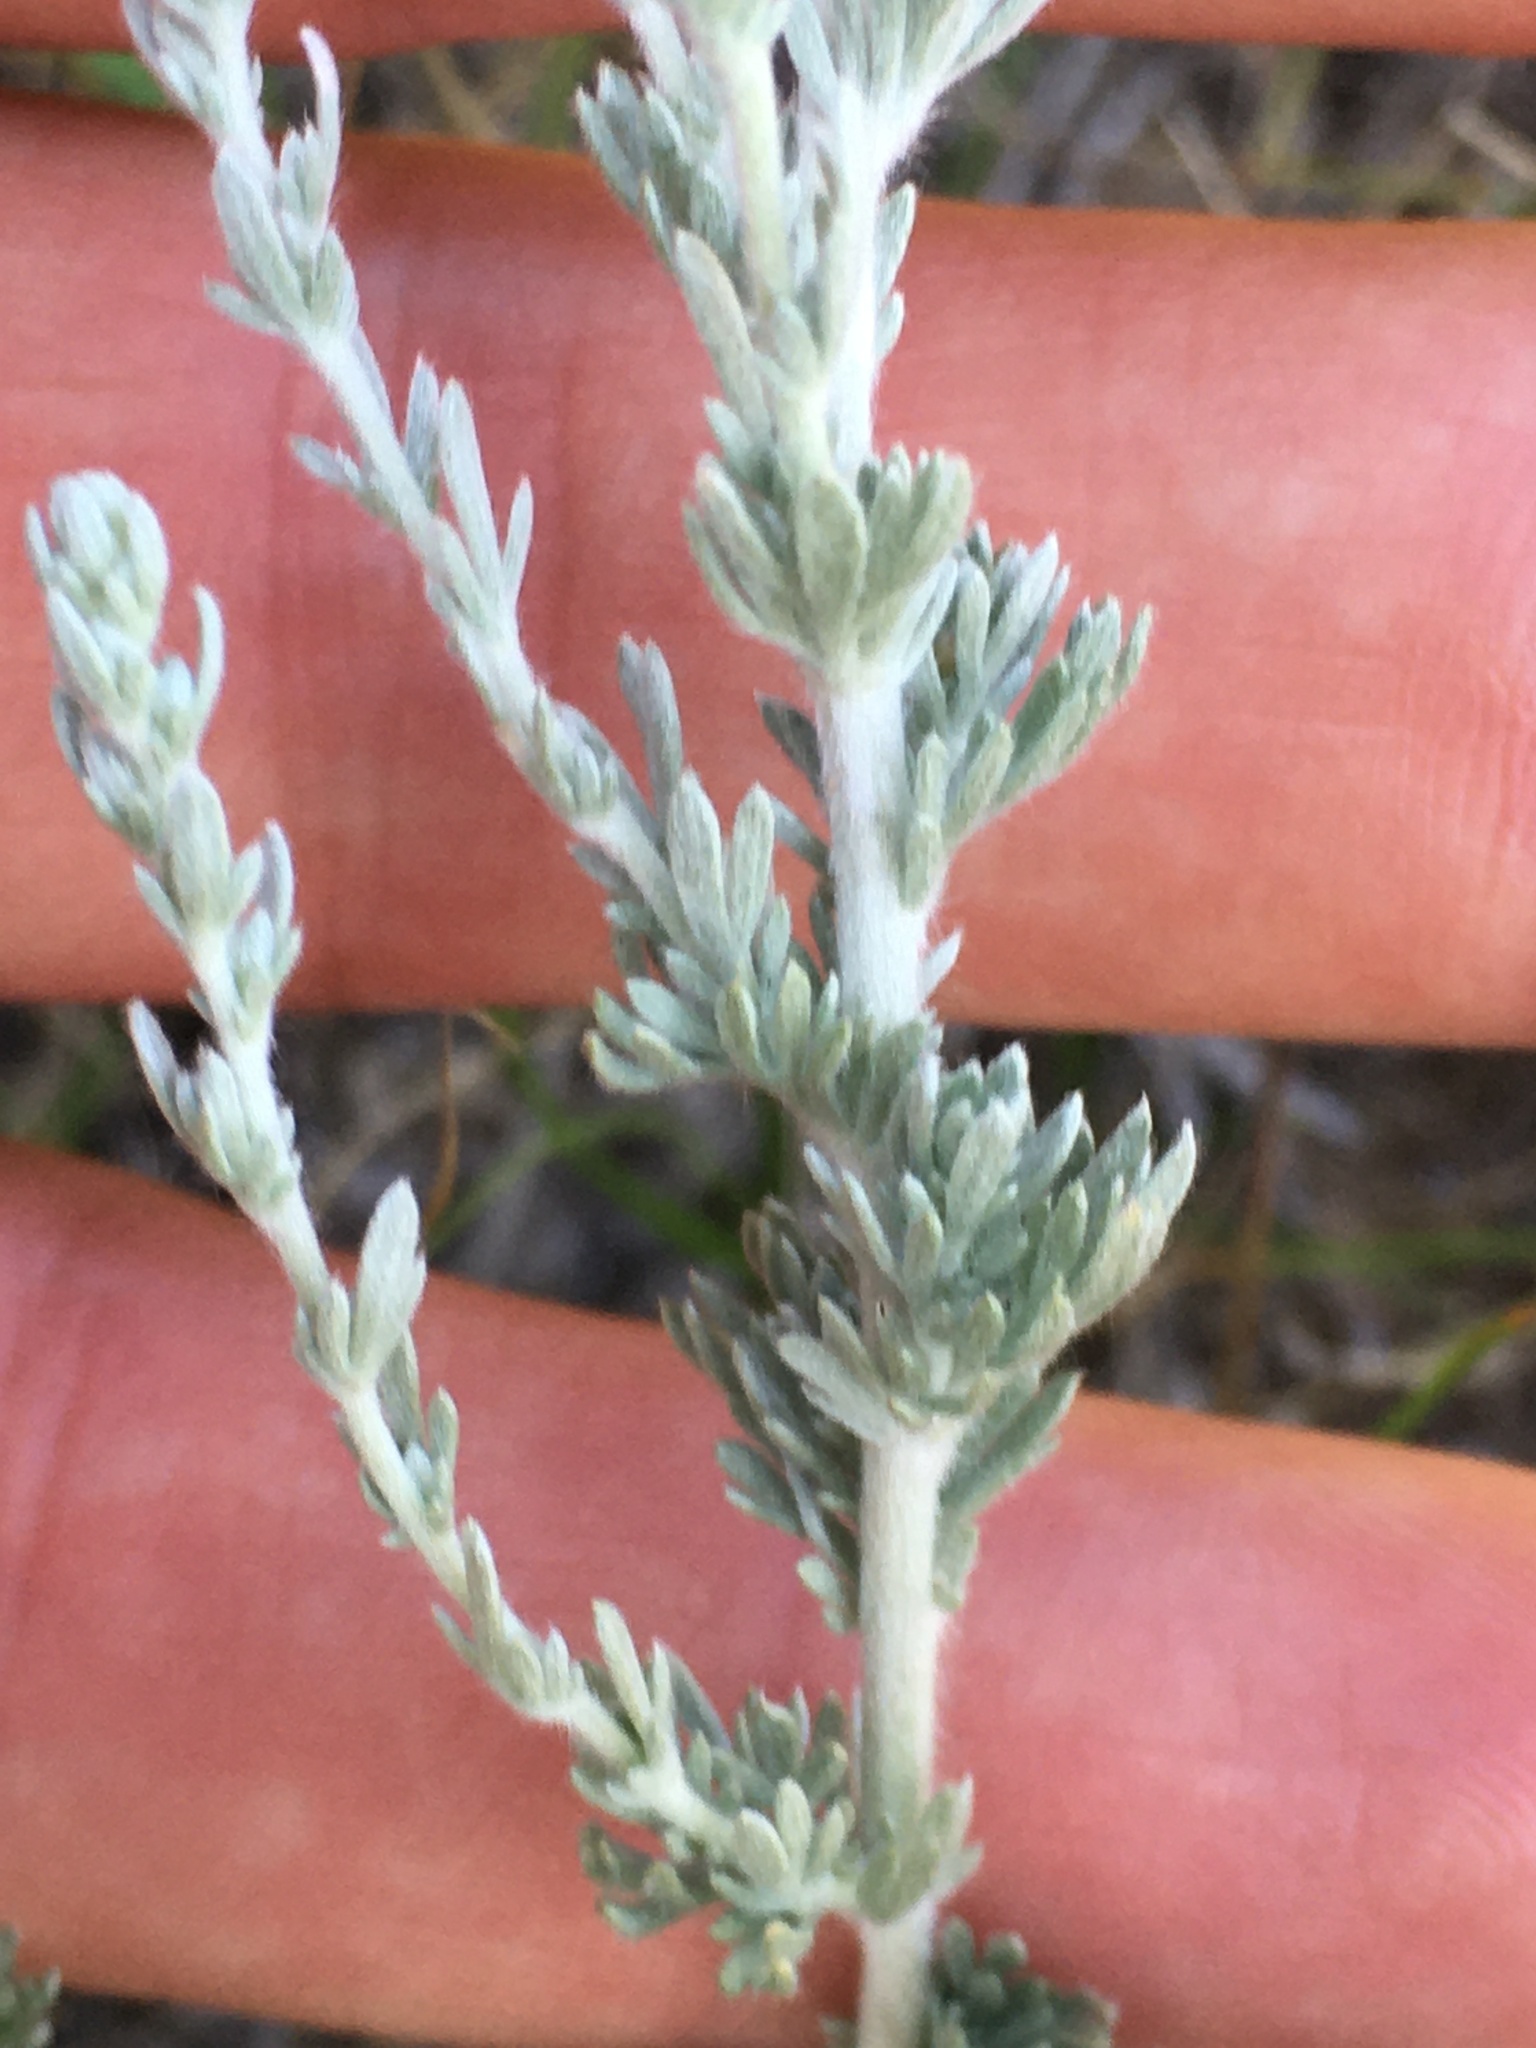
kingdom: Plantae
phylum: Tracheophyta
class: Magnoliopsida
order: Asterales
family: Asteraceae
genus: Artemisia
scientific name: Artemisia frigida
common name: Prairie sagewort
